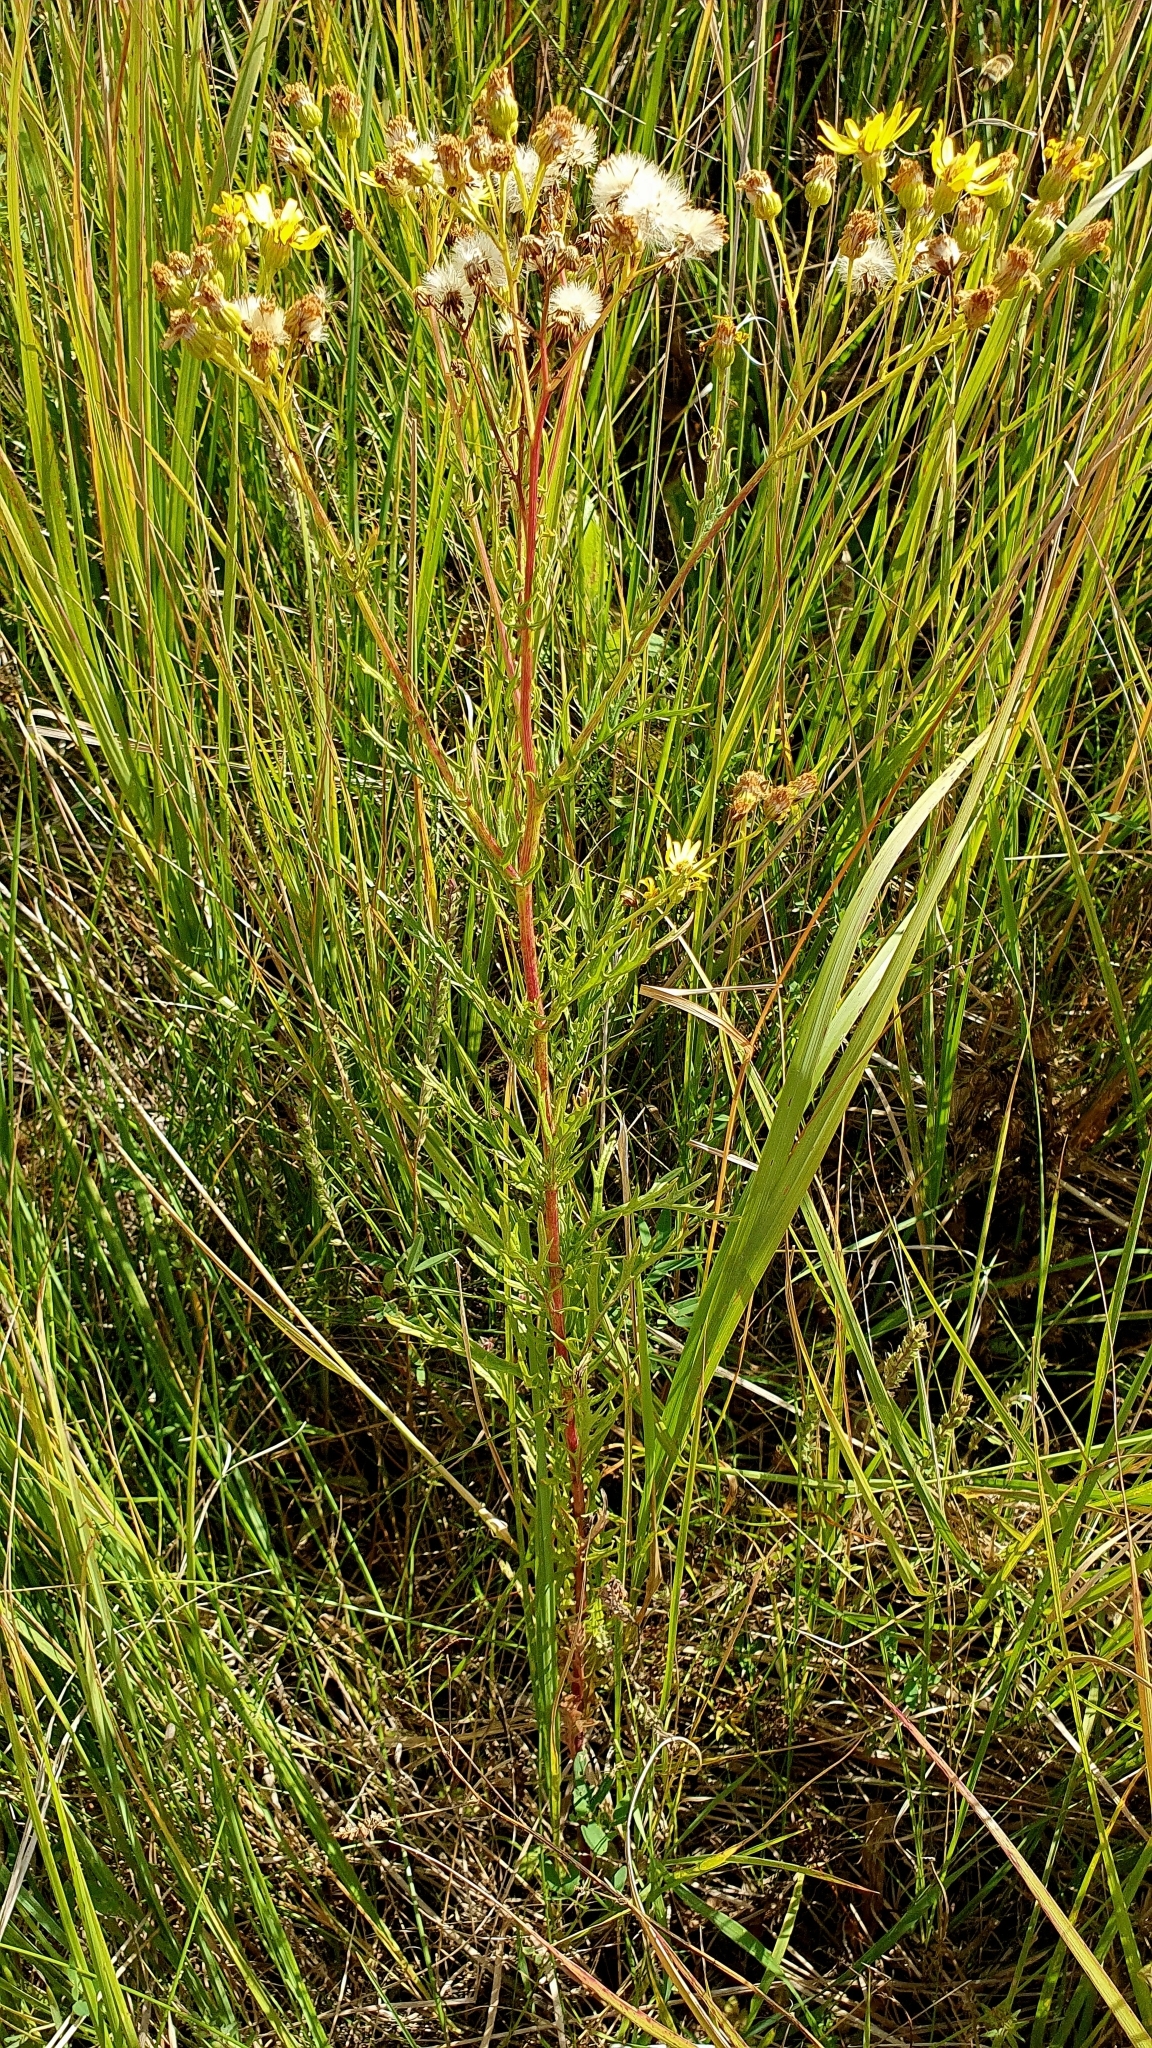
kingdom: Plantae
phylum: Tracheophyta
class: Magnoliopsida
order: Asterales
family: Asteraceae
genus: Jacobaea
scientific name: Jacobaea erucifolia
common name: Hoary ragwort
